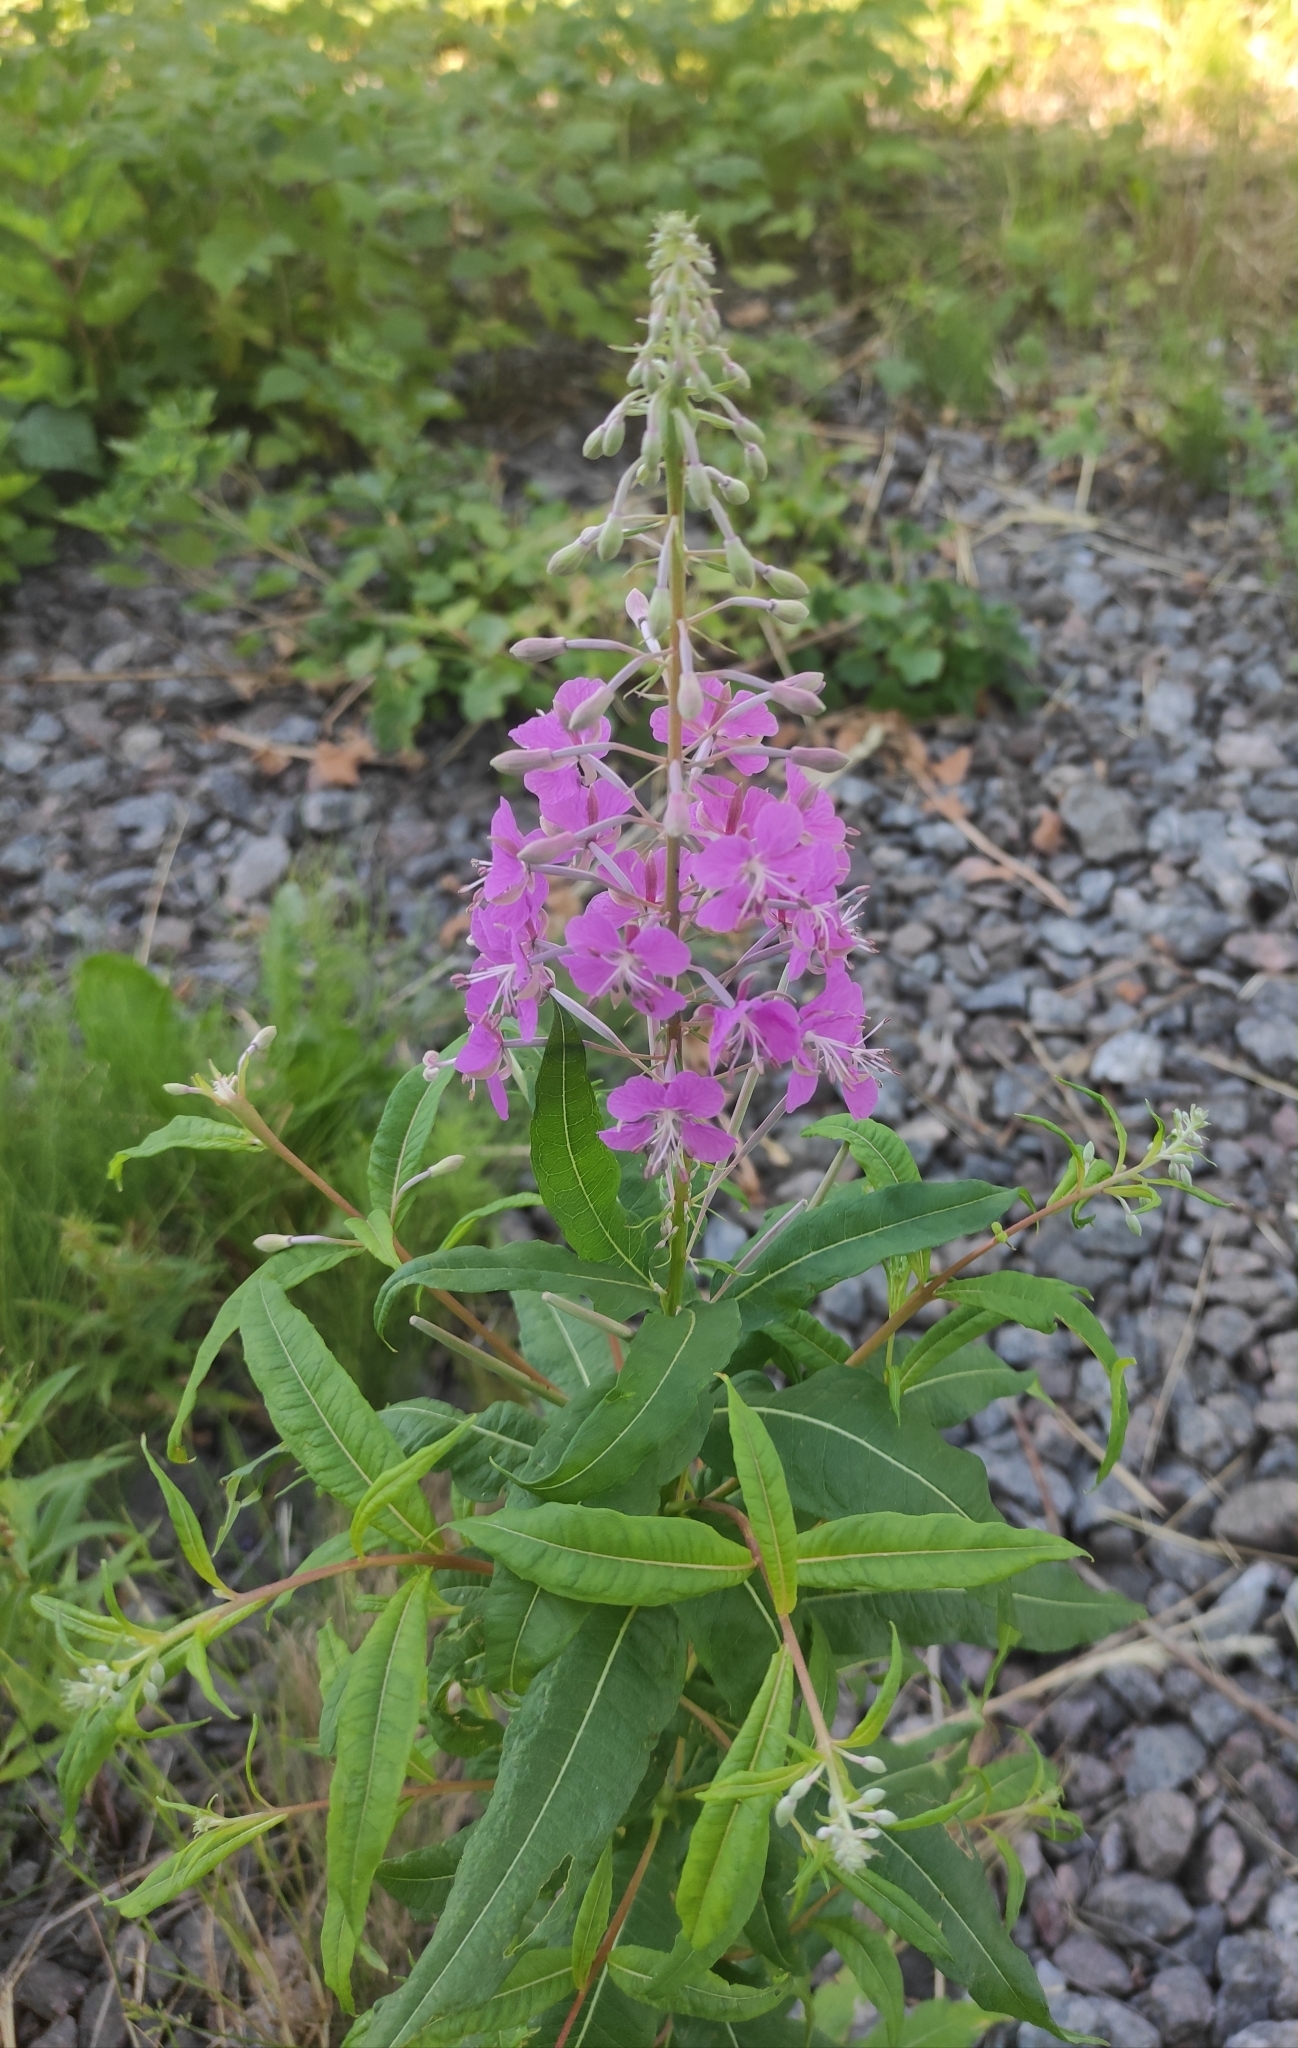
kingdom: Plantae
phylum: Tracheophyta
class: Magnoliopsida
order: Myrtales
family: Onagraceae
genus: Chamaenerion
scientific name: Chamaenerion angustifolium
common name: Fireweed
